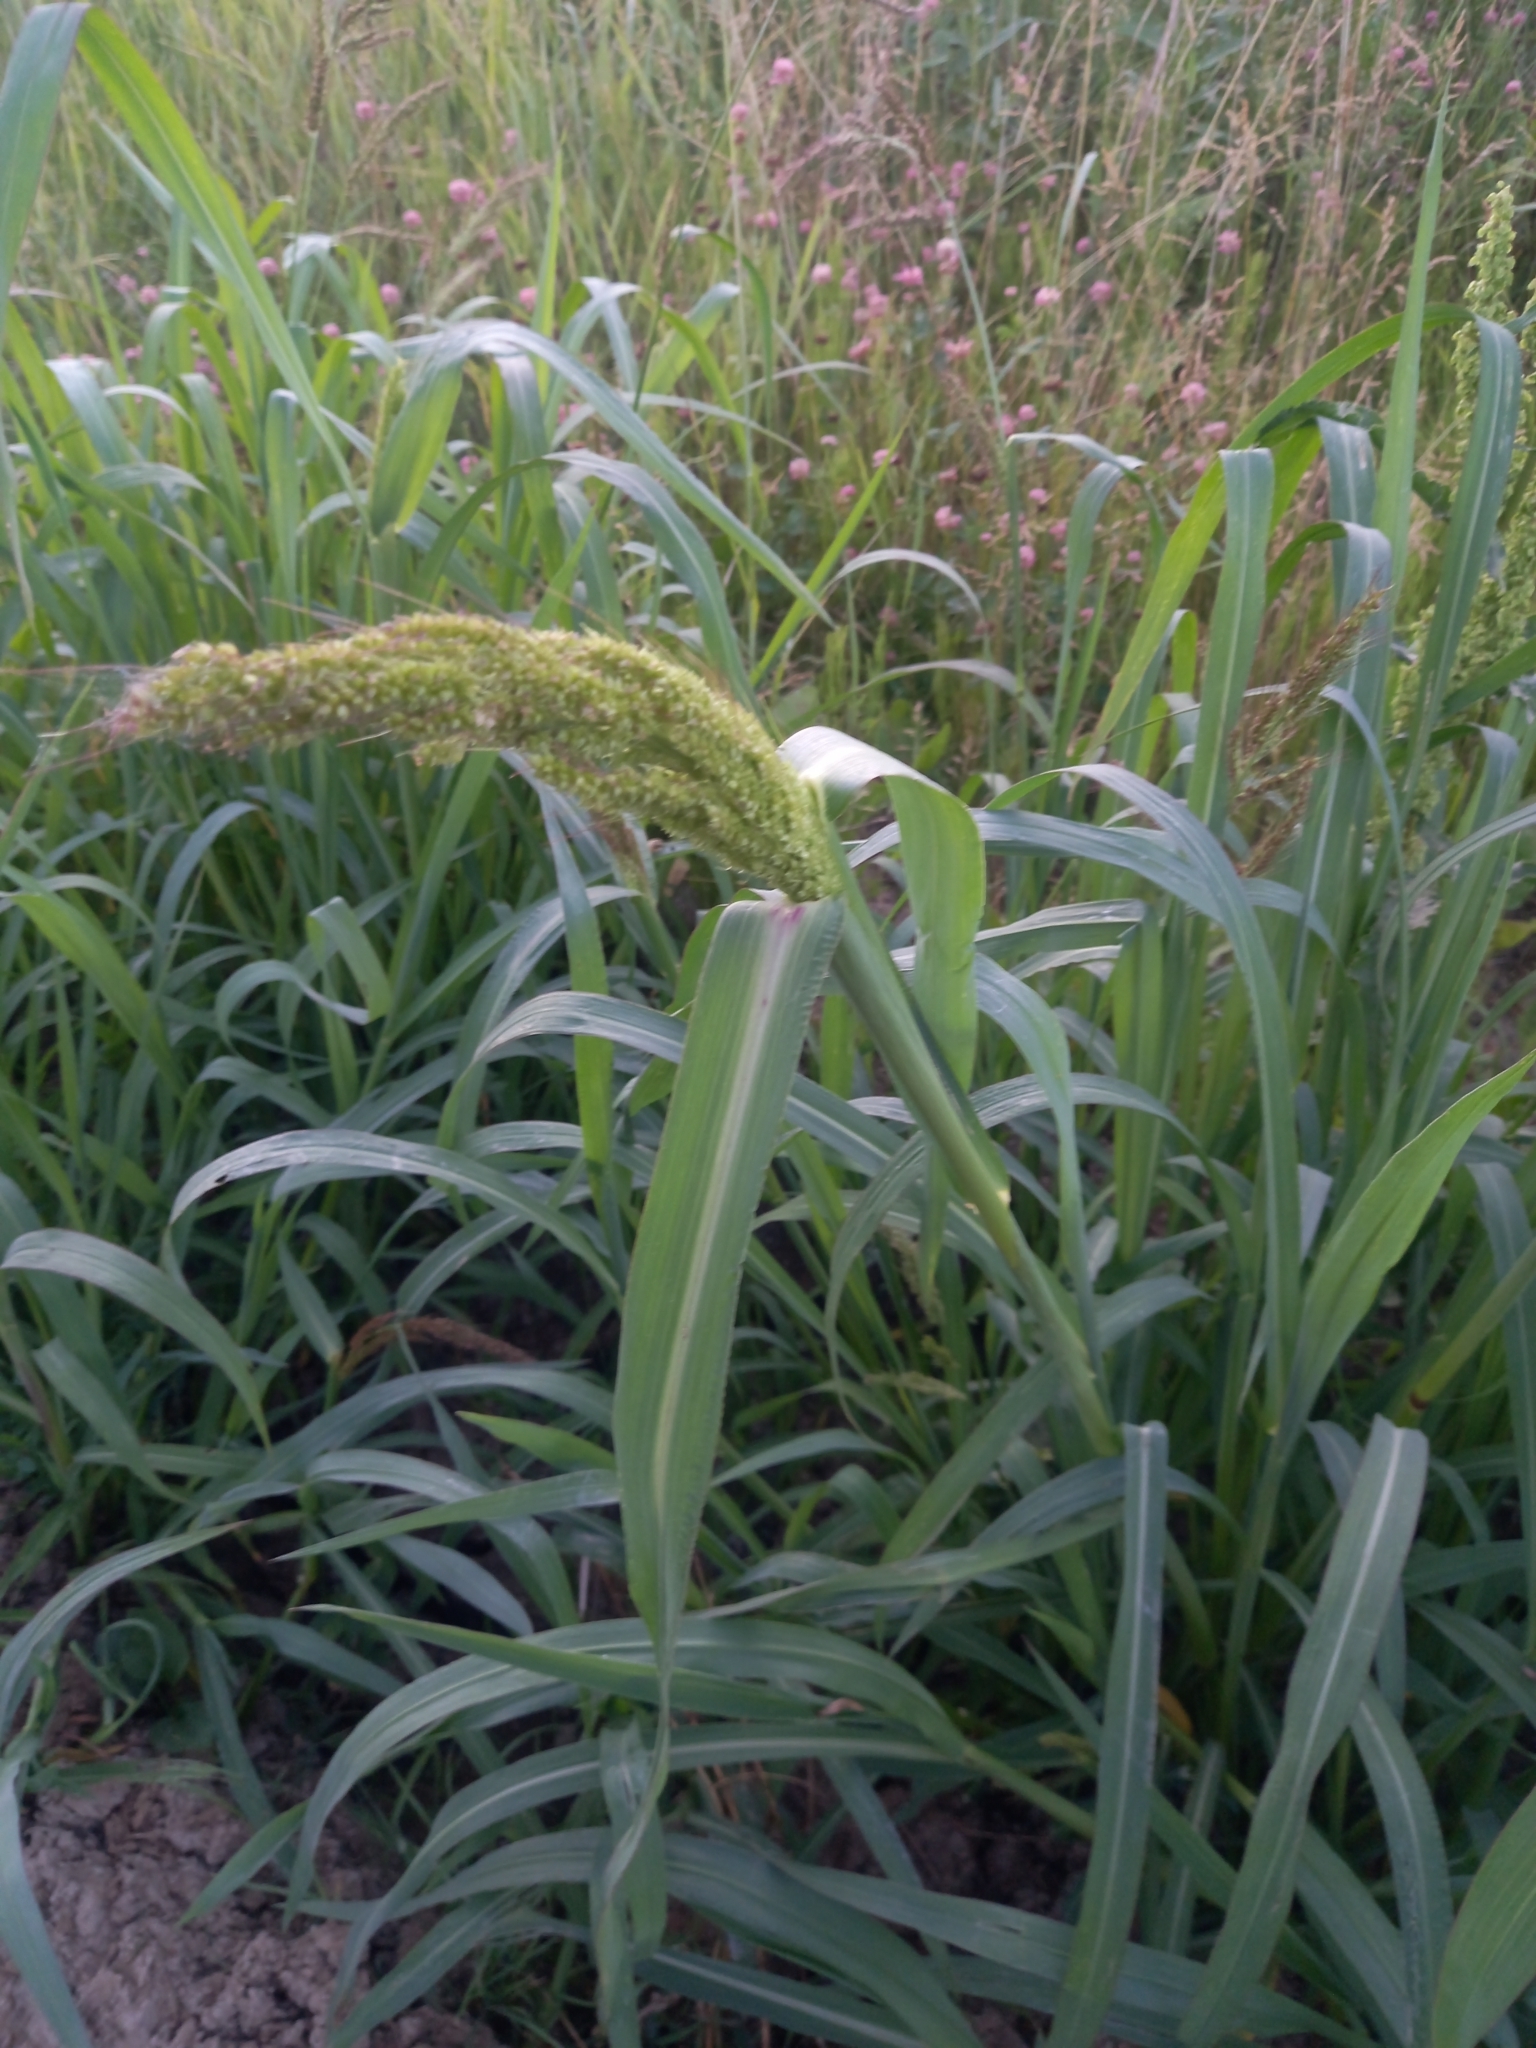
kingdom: Plantae
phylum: Tracheophyta
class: Liliopsida
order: Poales
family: Poaceae
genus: Echinochloa
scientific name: Echinochloa crus-galli
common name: Cockspur
